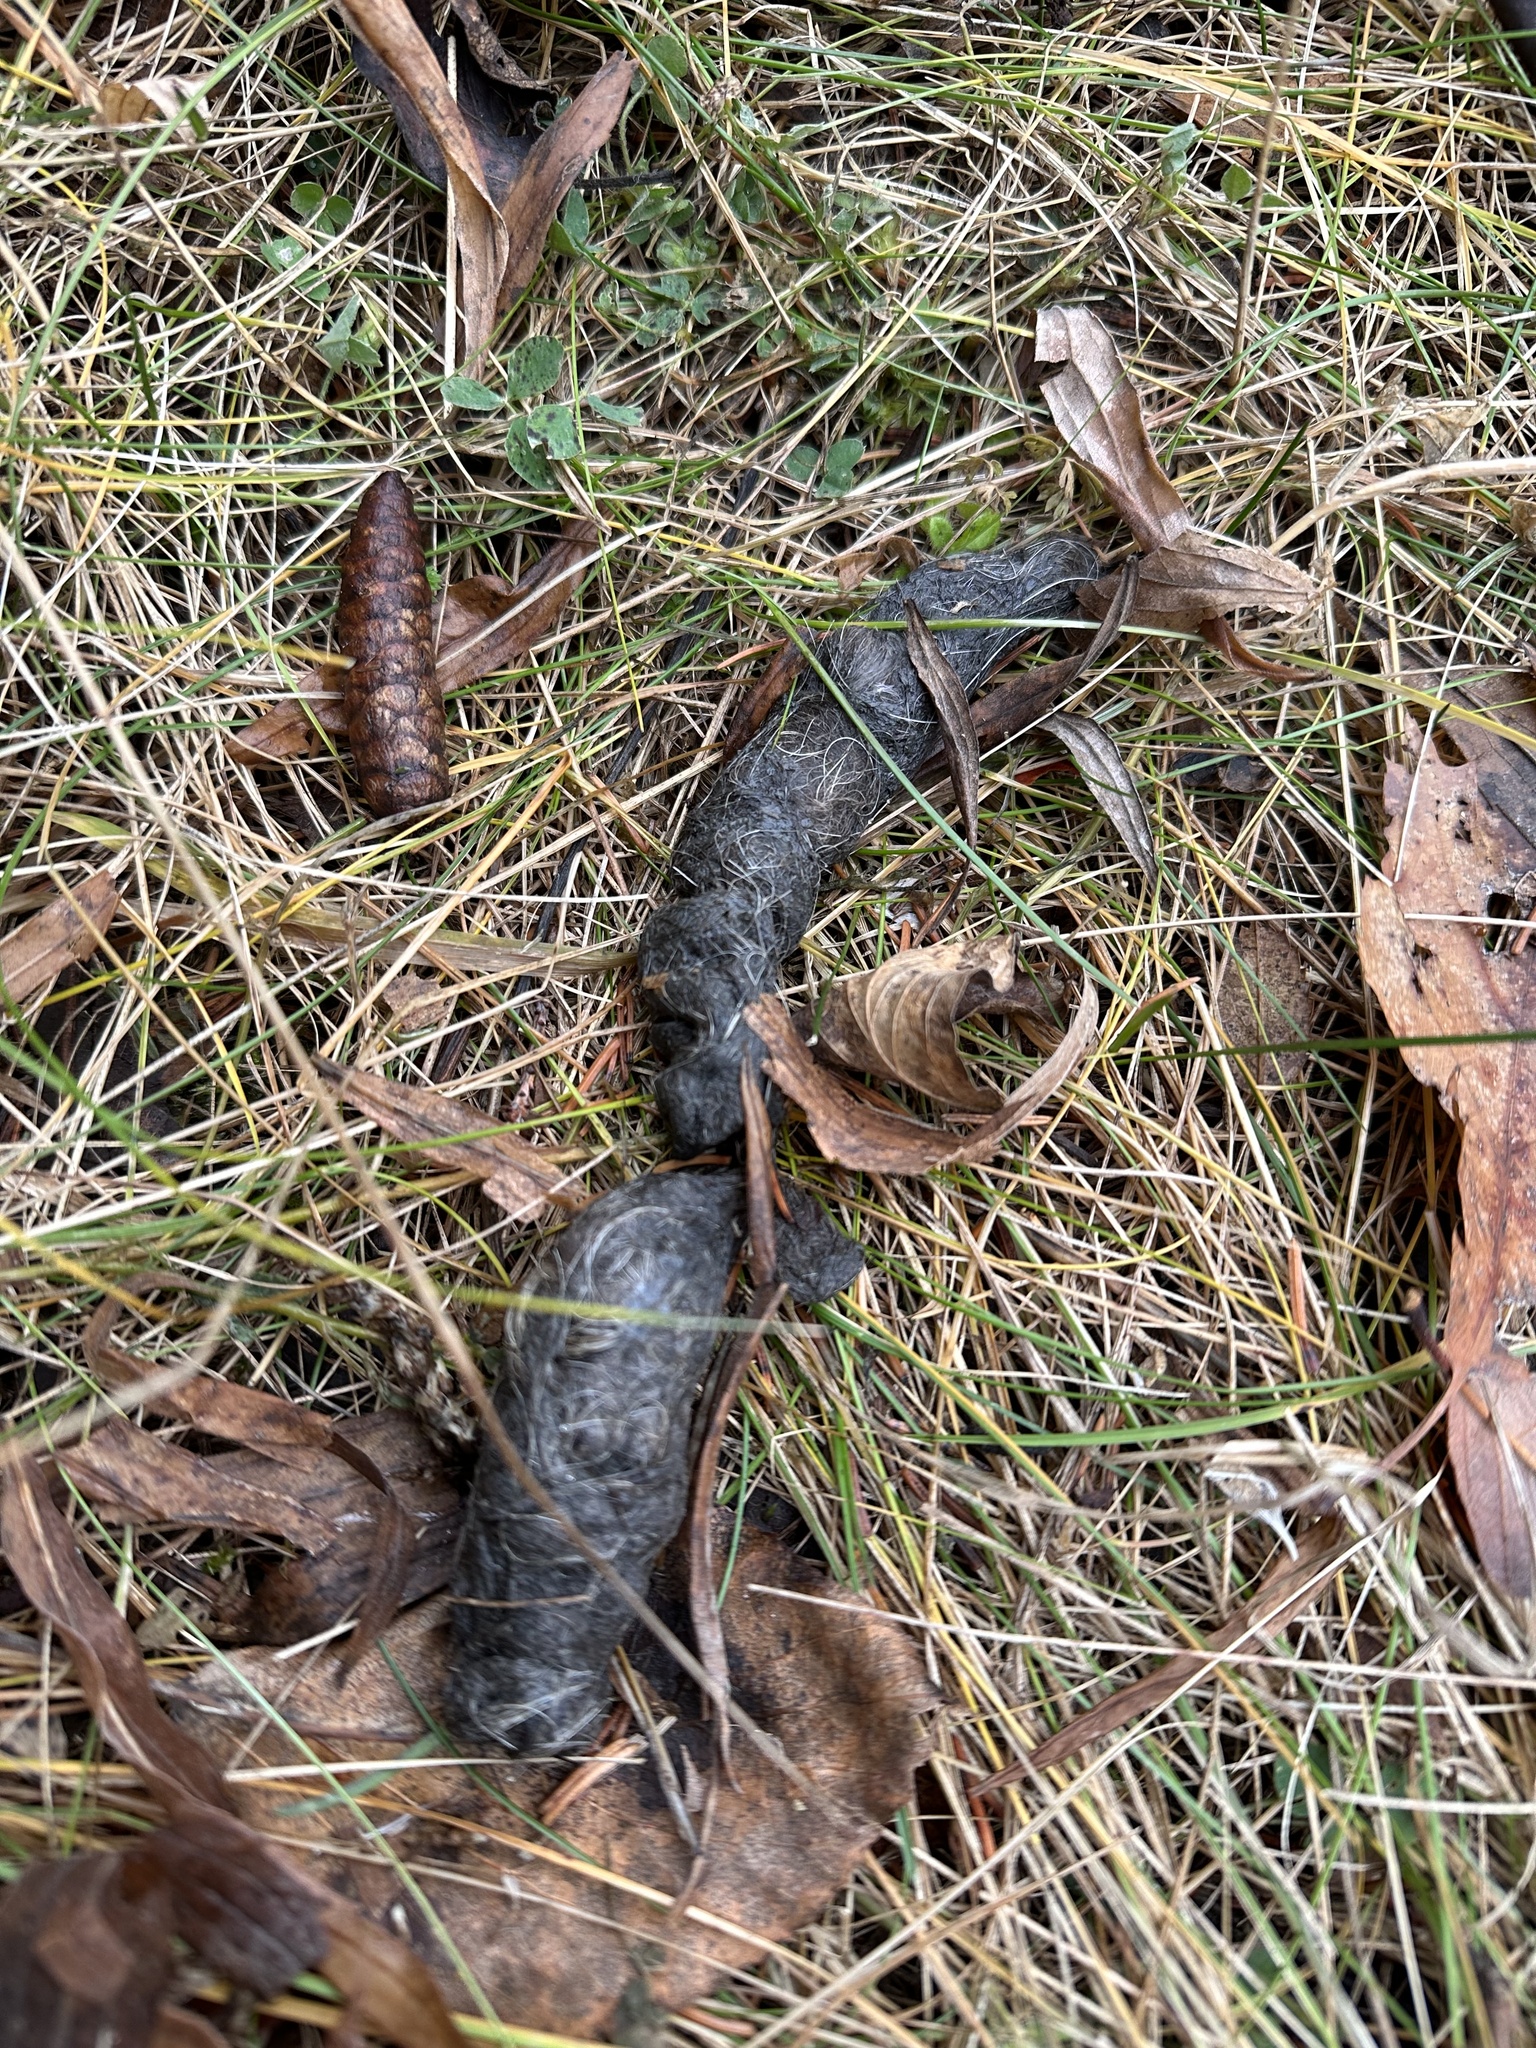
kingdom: Animalia
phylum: Chordata
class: Mammalia
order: Carnivora
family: Canidae
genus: Canis
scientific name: Canis latrans
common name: Coyote
